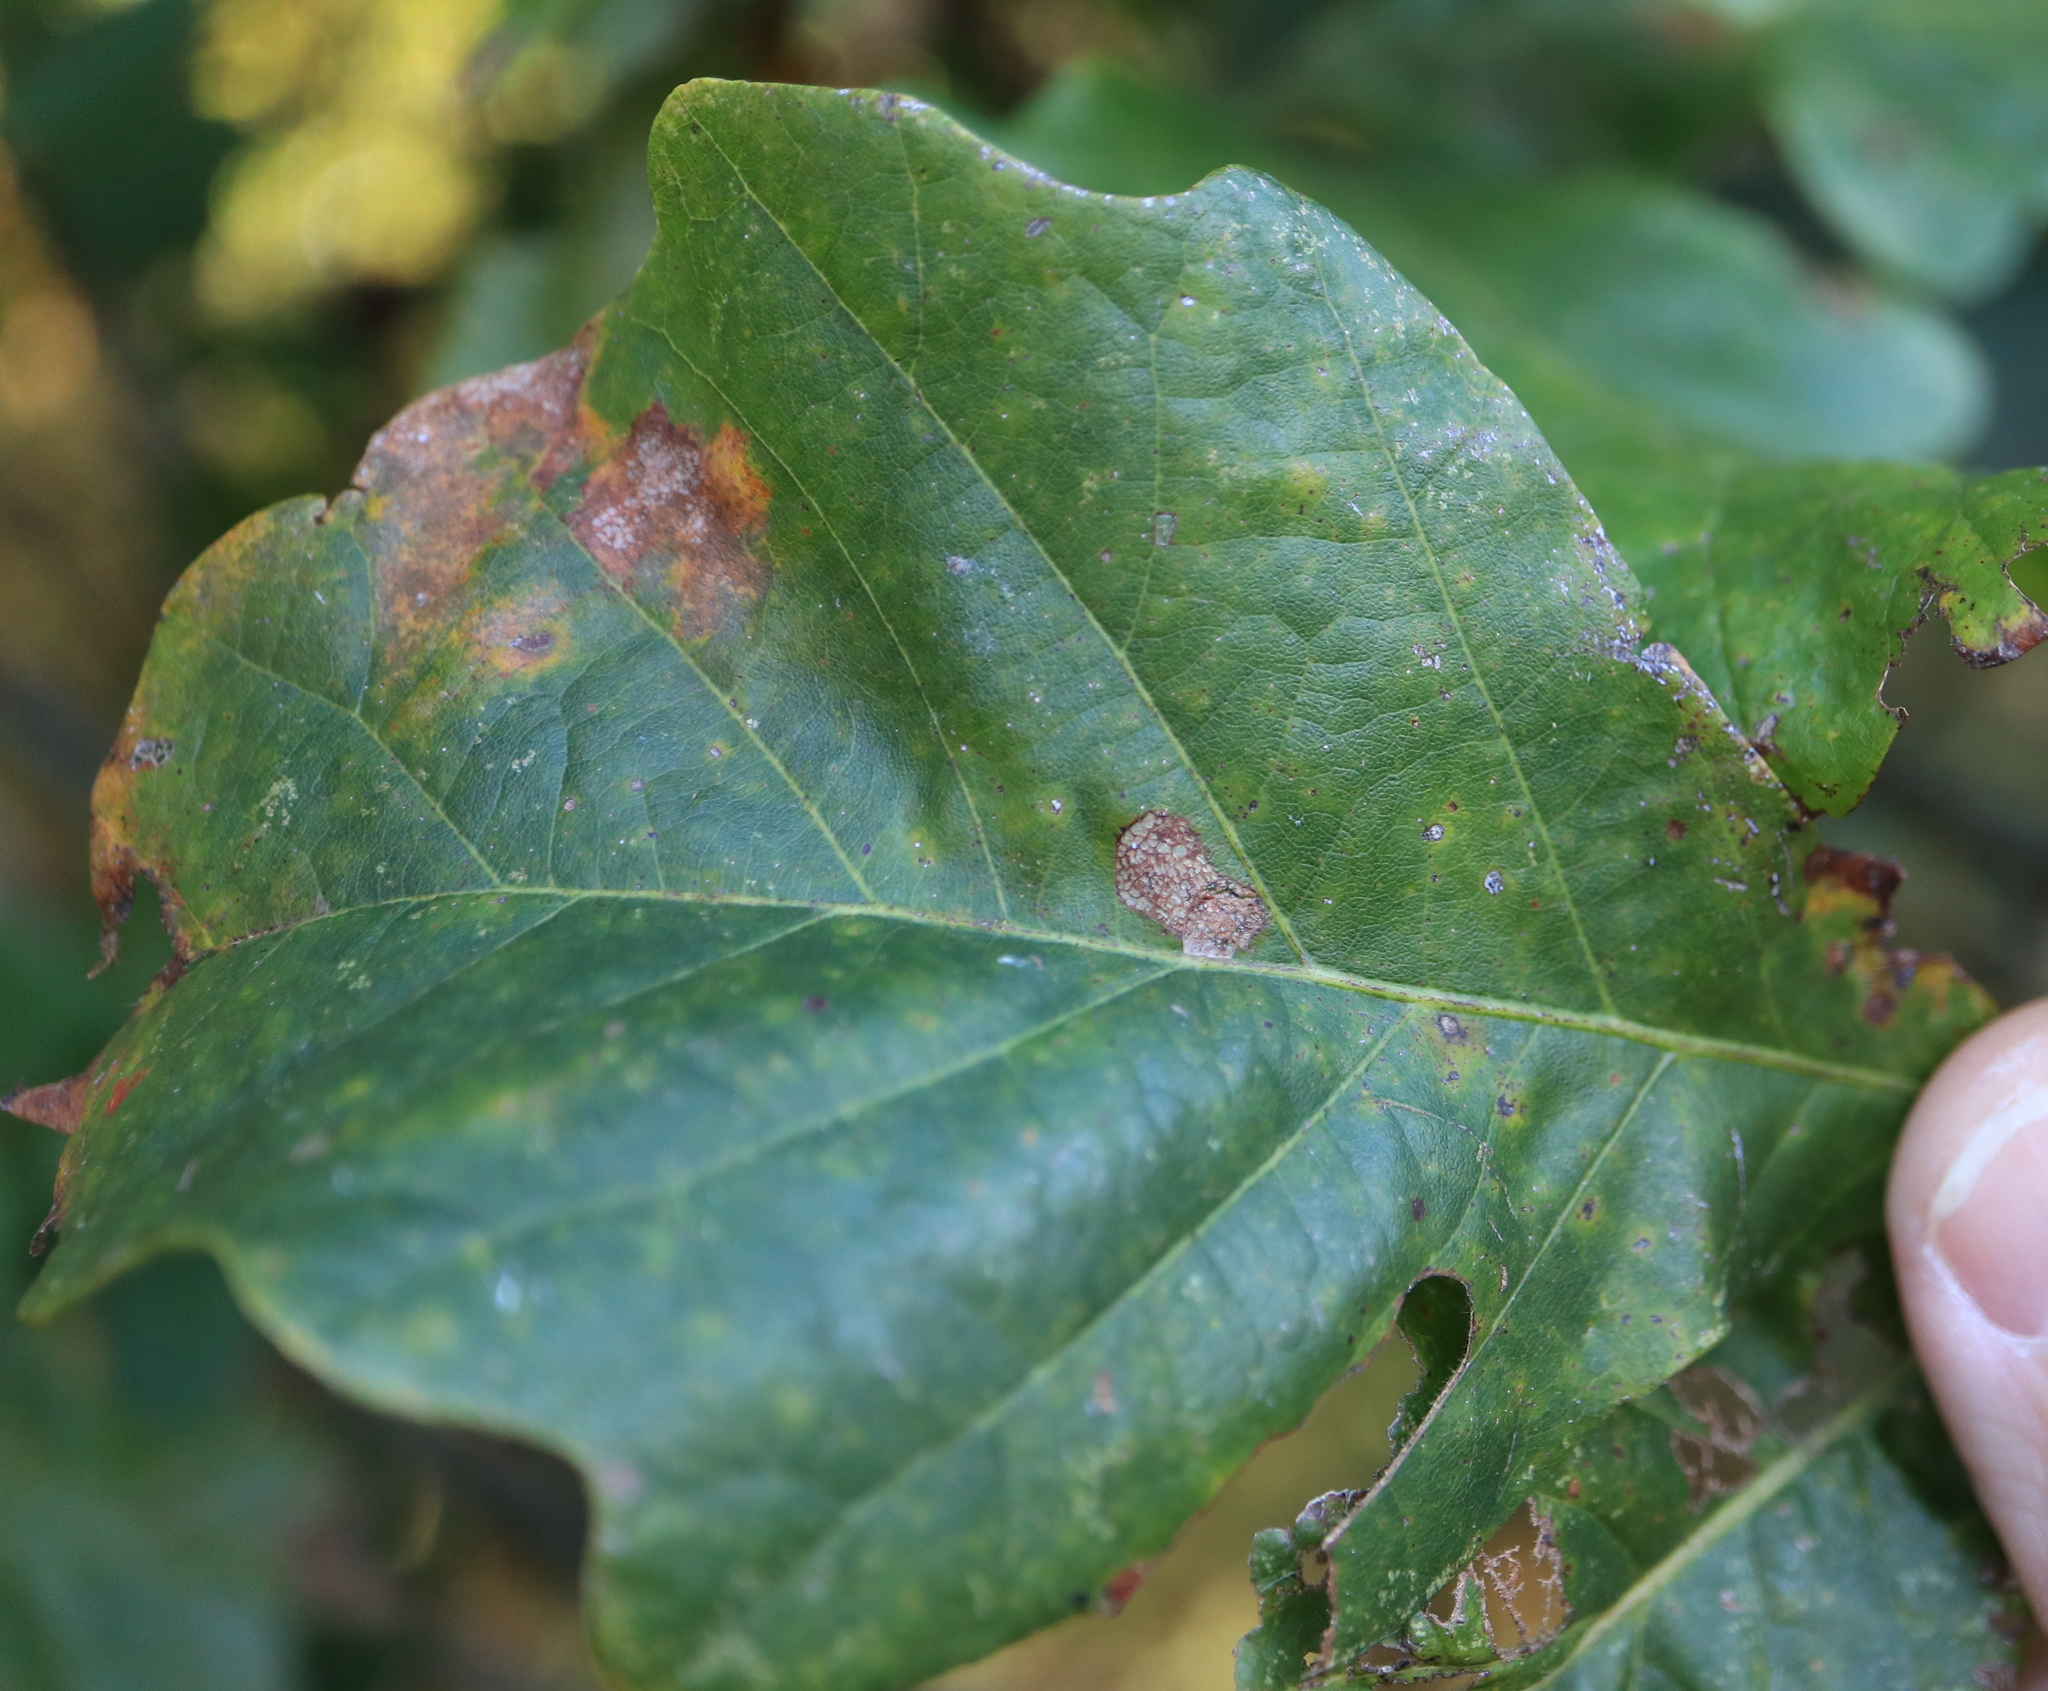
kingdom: Animalia
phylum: Arthropoda
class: Insecta
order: Hymenoptera
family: Cynipidae
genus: Andricus
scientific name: Andricus
